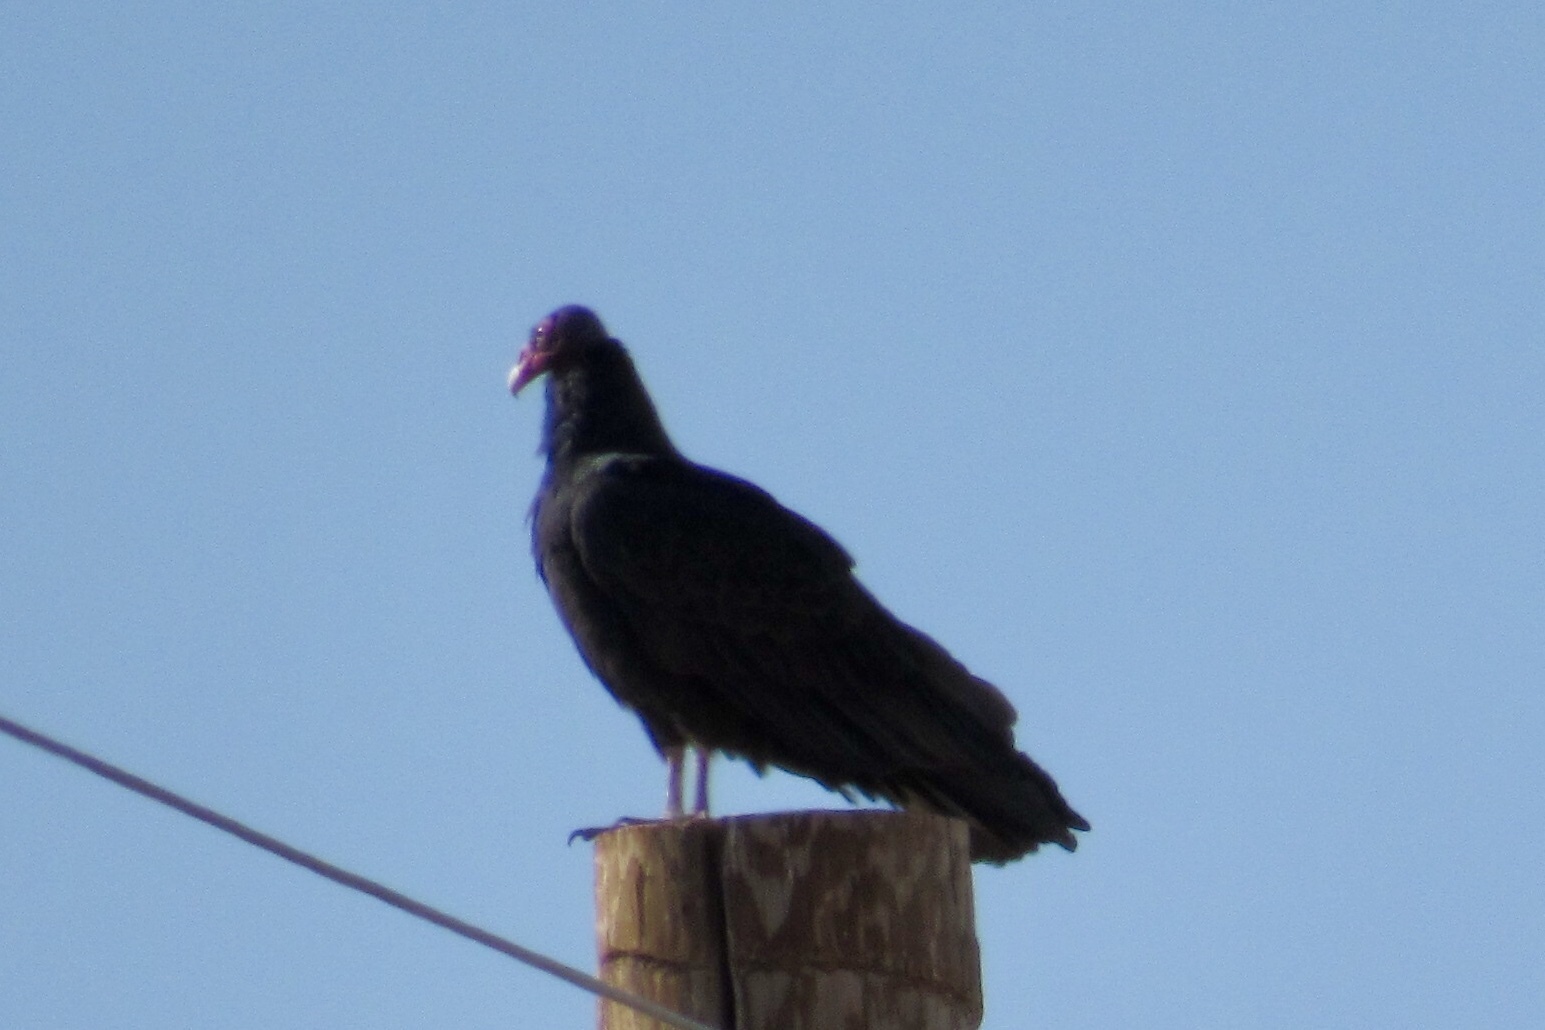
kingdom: Animalia
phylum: Chordata
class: Aves
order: Accipitriformes
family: Cathartidae
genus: Cathartes
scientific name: Cathartes aura
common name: Turkey vulture
